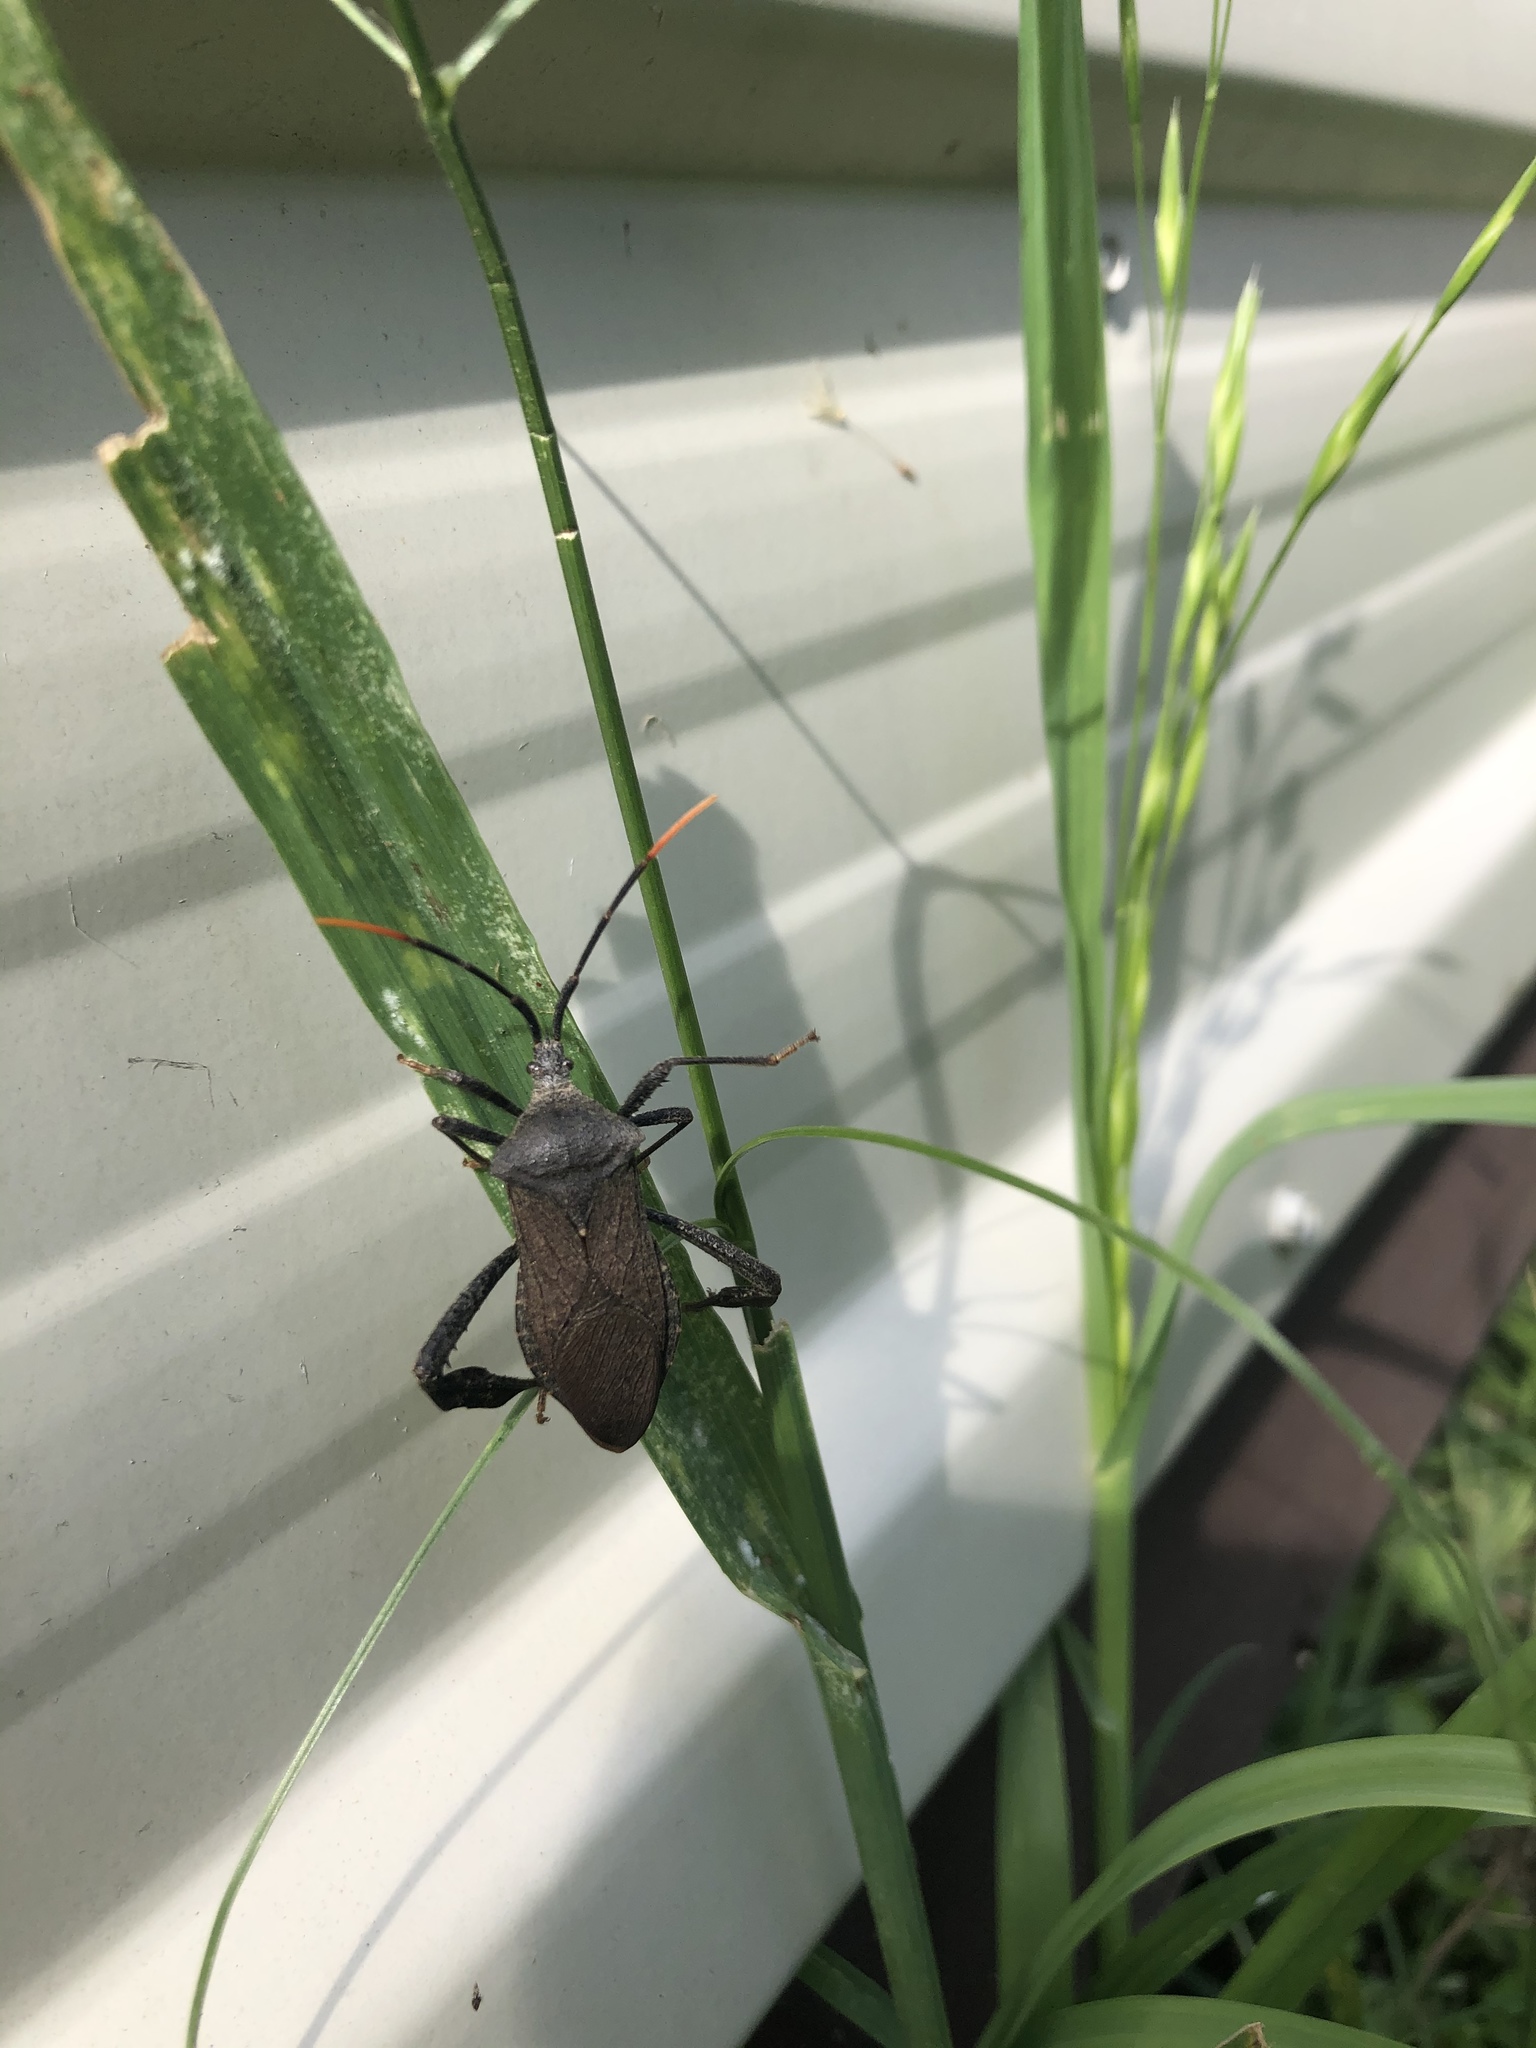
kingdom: Animalia
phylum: Arthropoda
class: Insecta
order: Hemiptera
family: Coreidae
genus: Acanthocephala
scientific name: Acanthocephala terminalis
